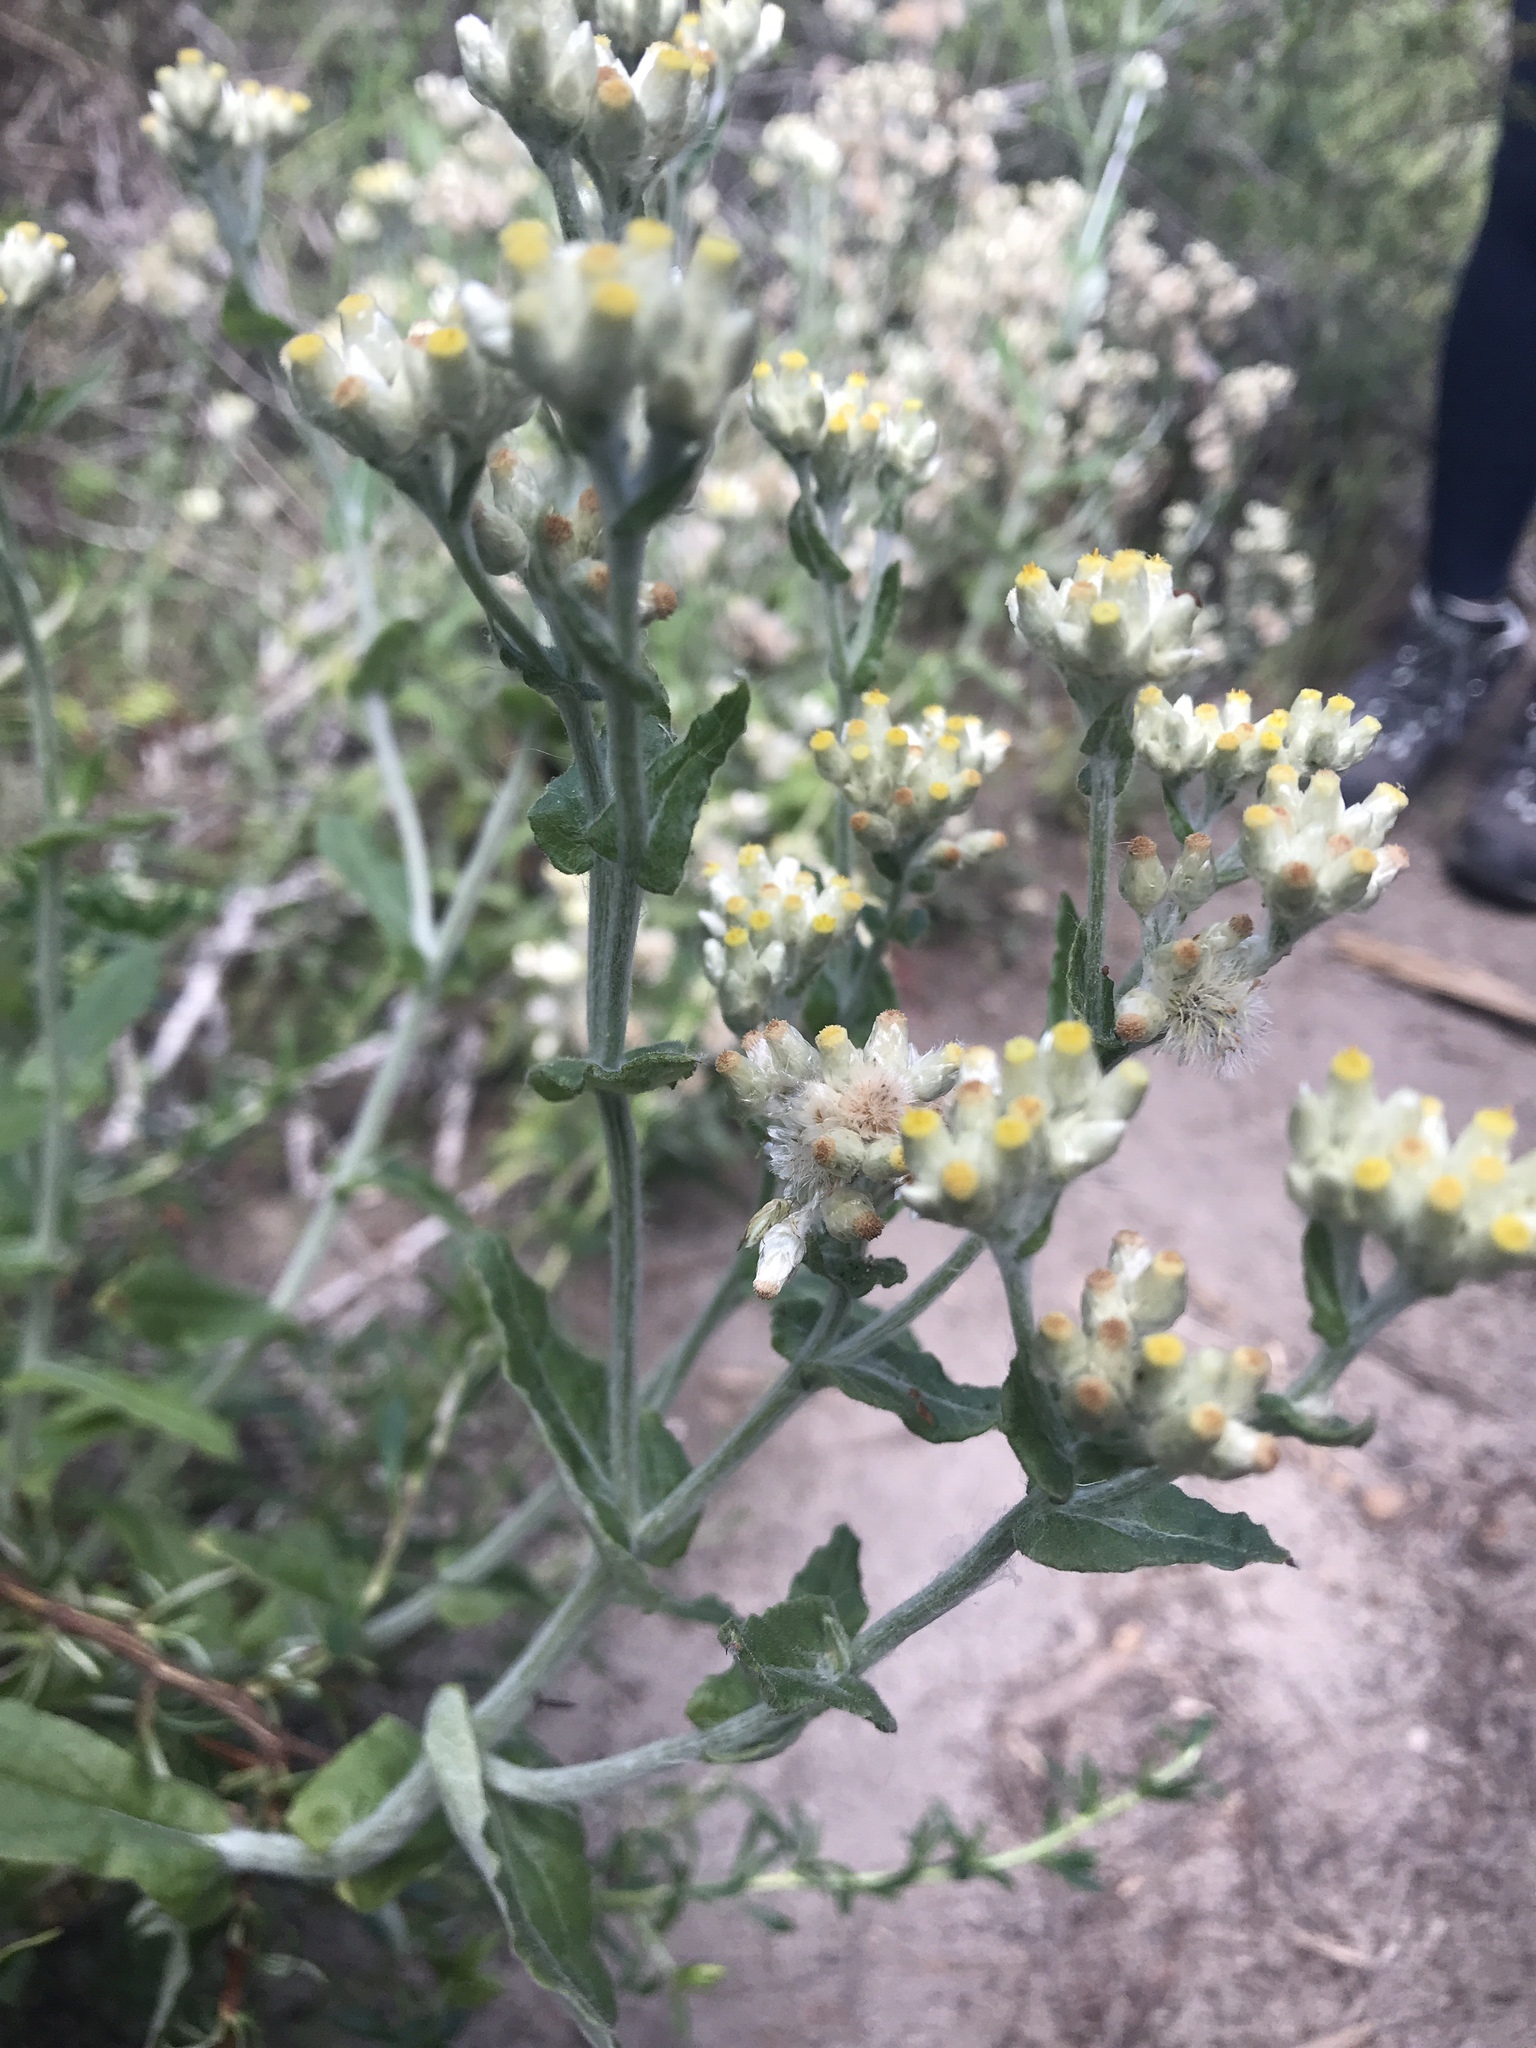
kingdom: Plantae
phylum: Tracheophyta
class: Magnoliopsida
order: Asterales
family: Asteraceae
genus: Pseudognaphalium
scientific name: Pseudognaphalium biolettii
